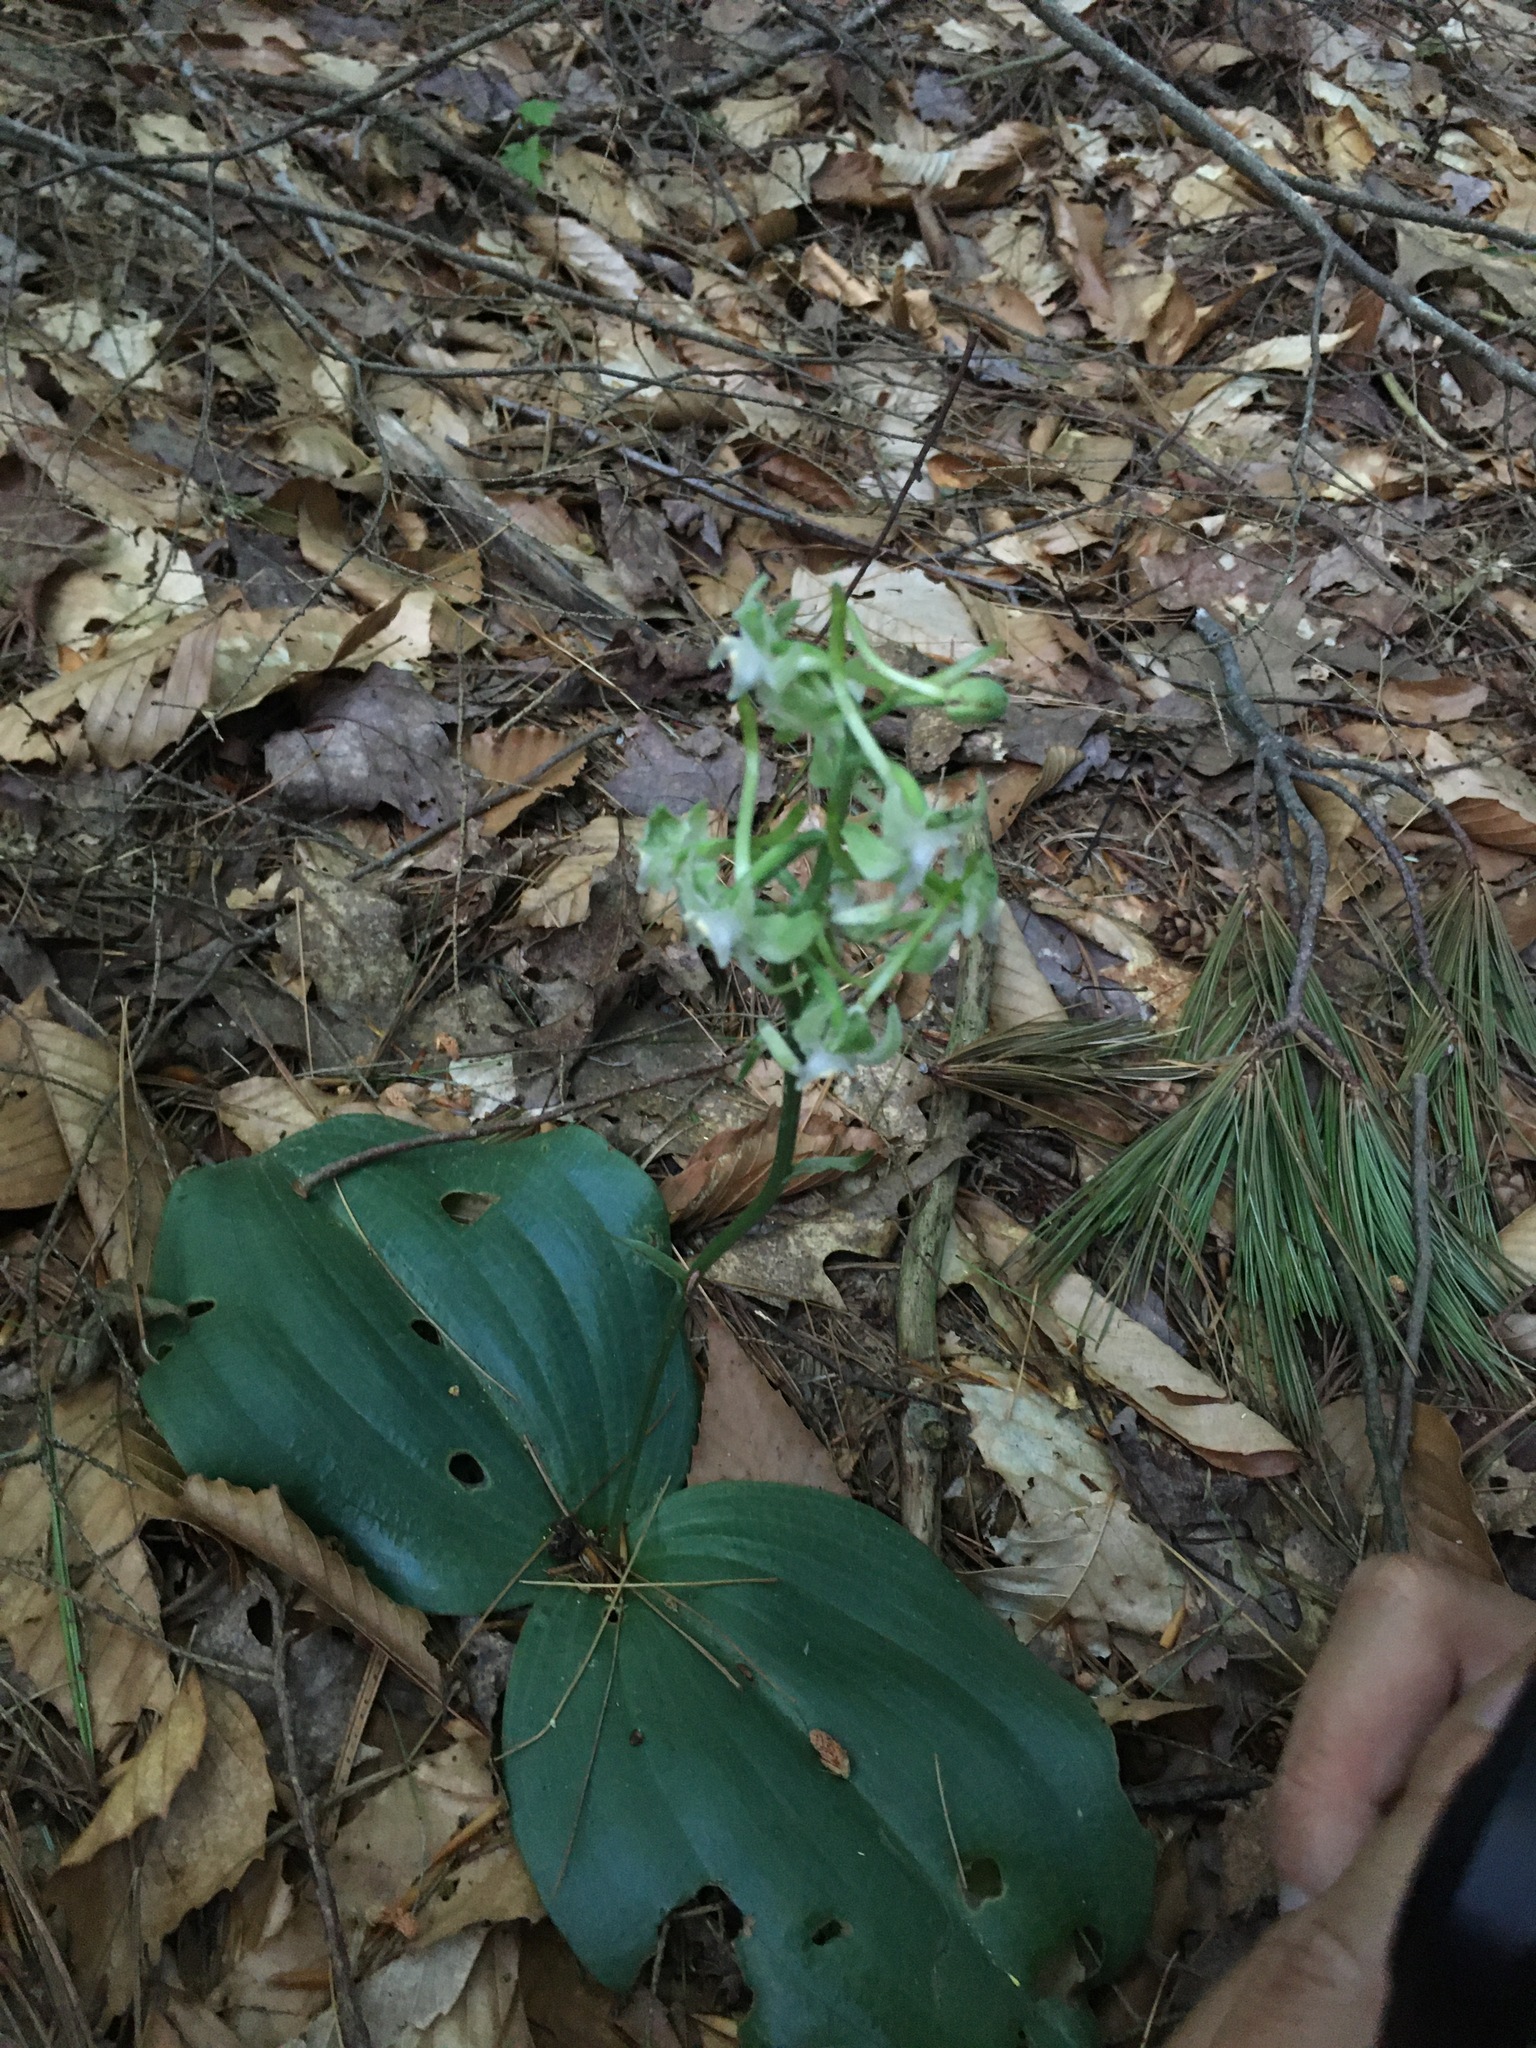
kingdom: Plantae
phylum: Tracheophyta
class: Liliopsida
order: Asparagales
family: Orchidaceae
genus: Platanthera
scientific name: Platanthera orbiculata
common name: Large round-leaved orchid
